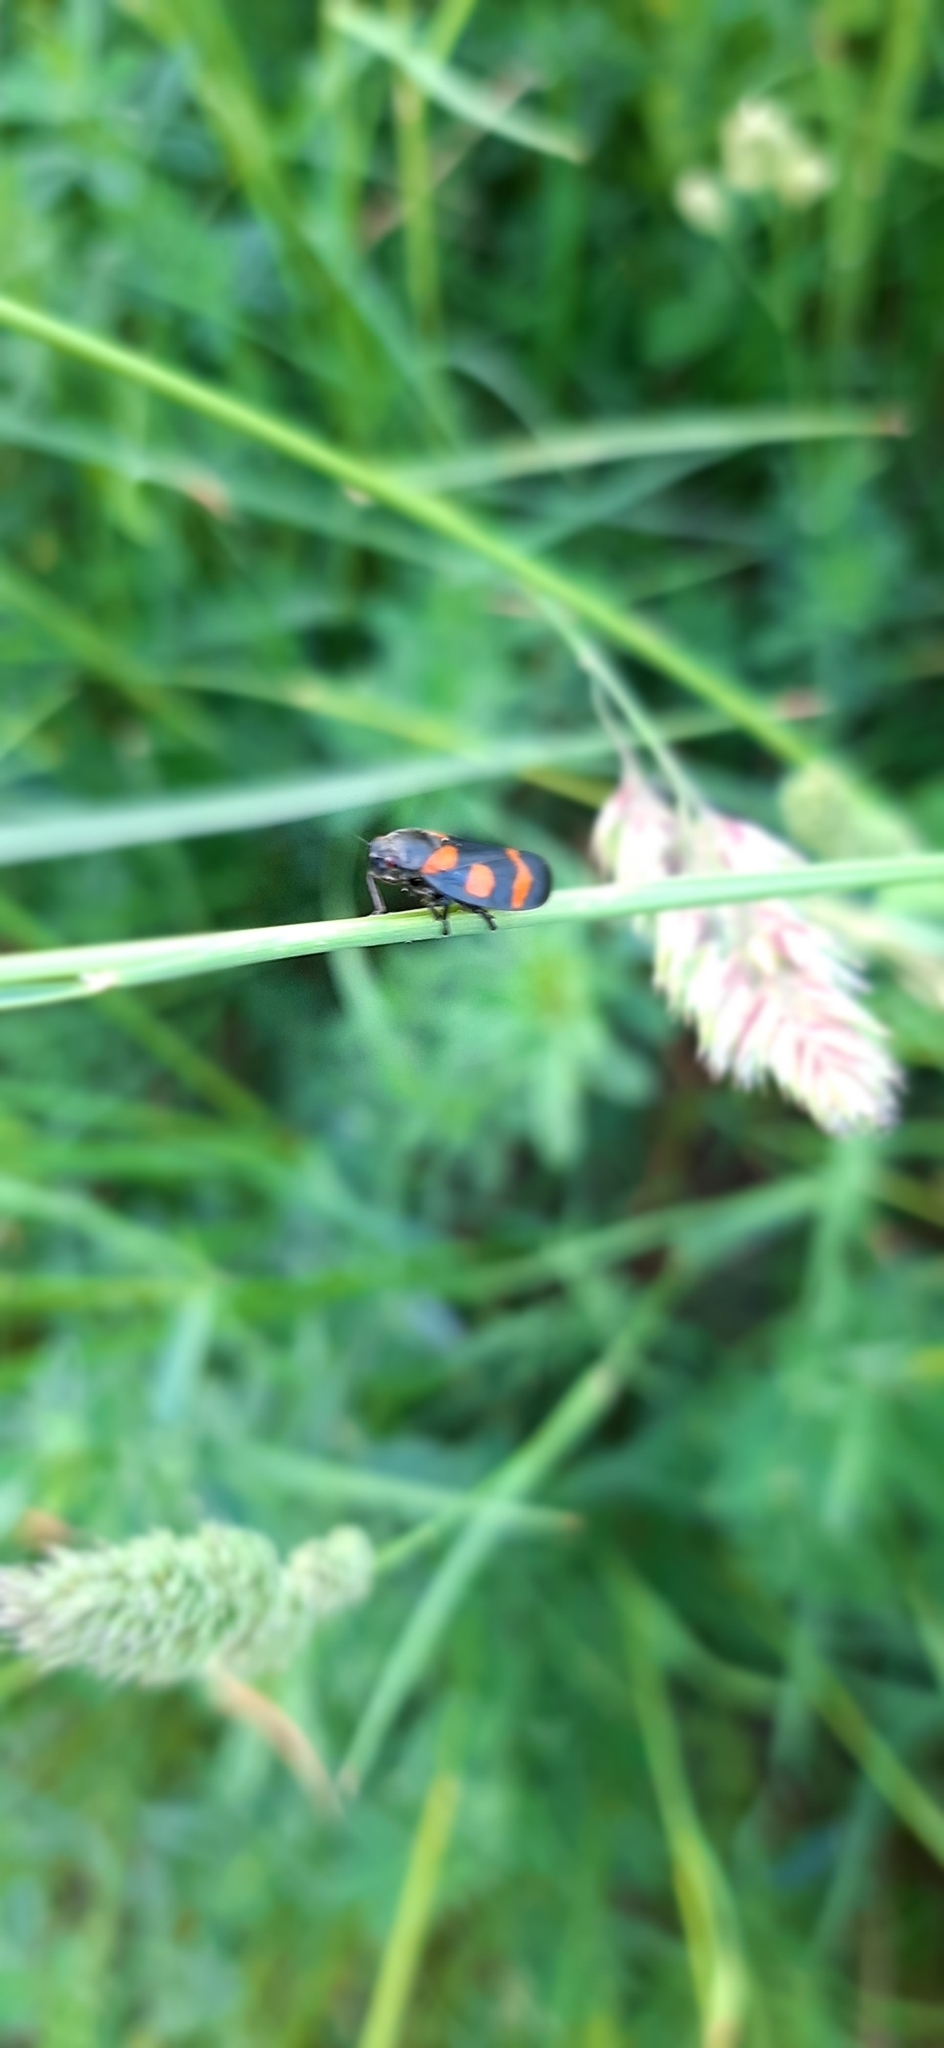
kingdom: Animalia
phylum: Arthropoda
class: Insecta
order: Hemiptera
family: Cercopidae
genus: Cercopis
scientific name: Cercopis
